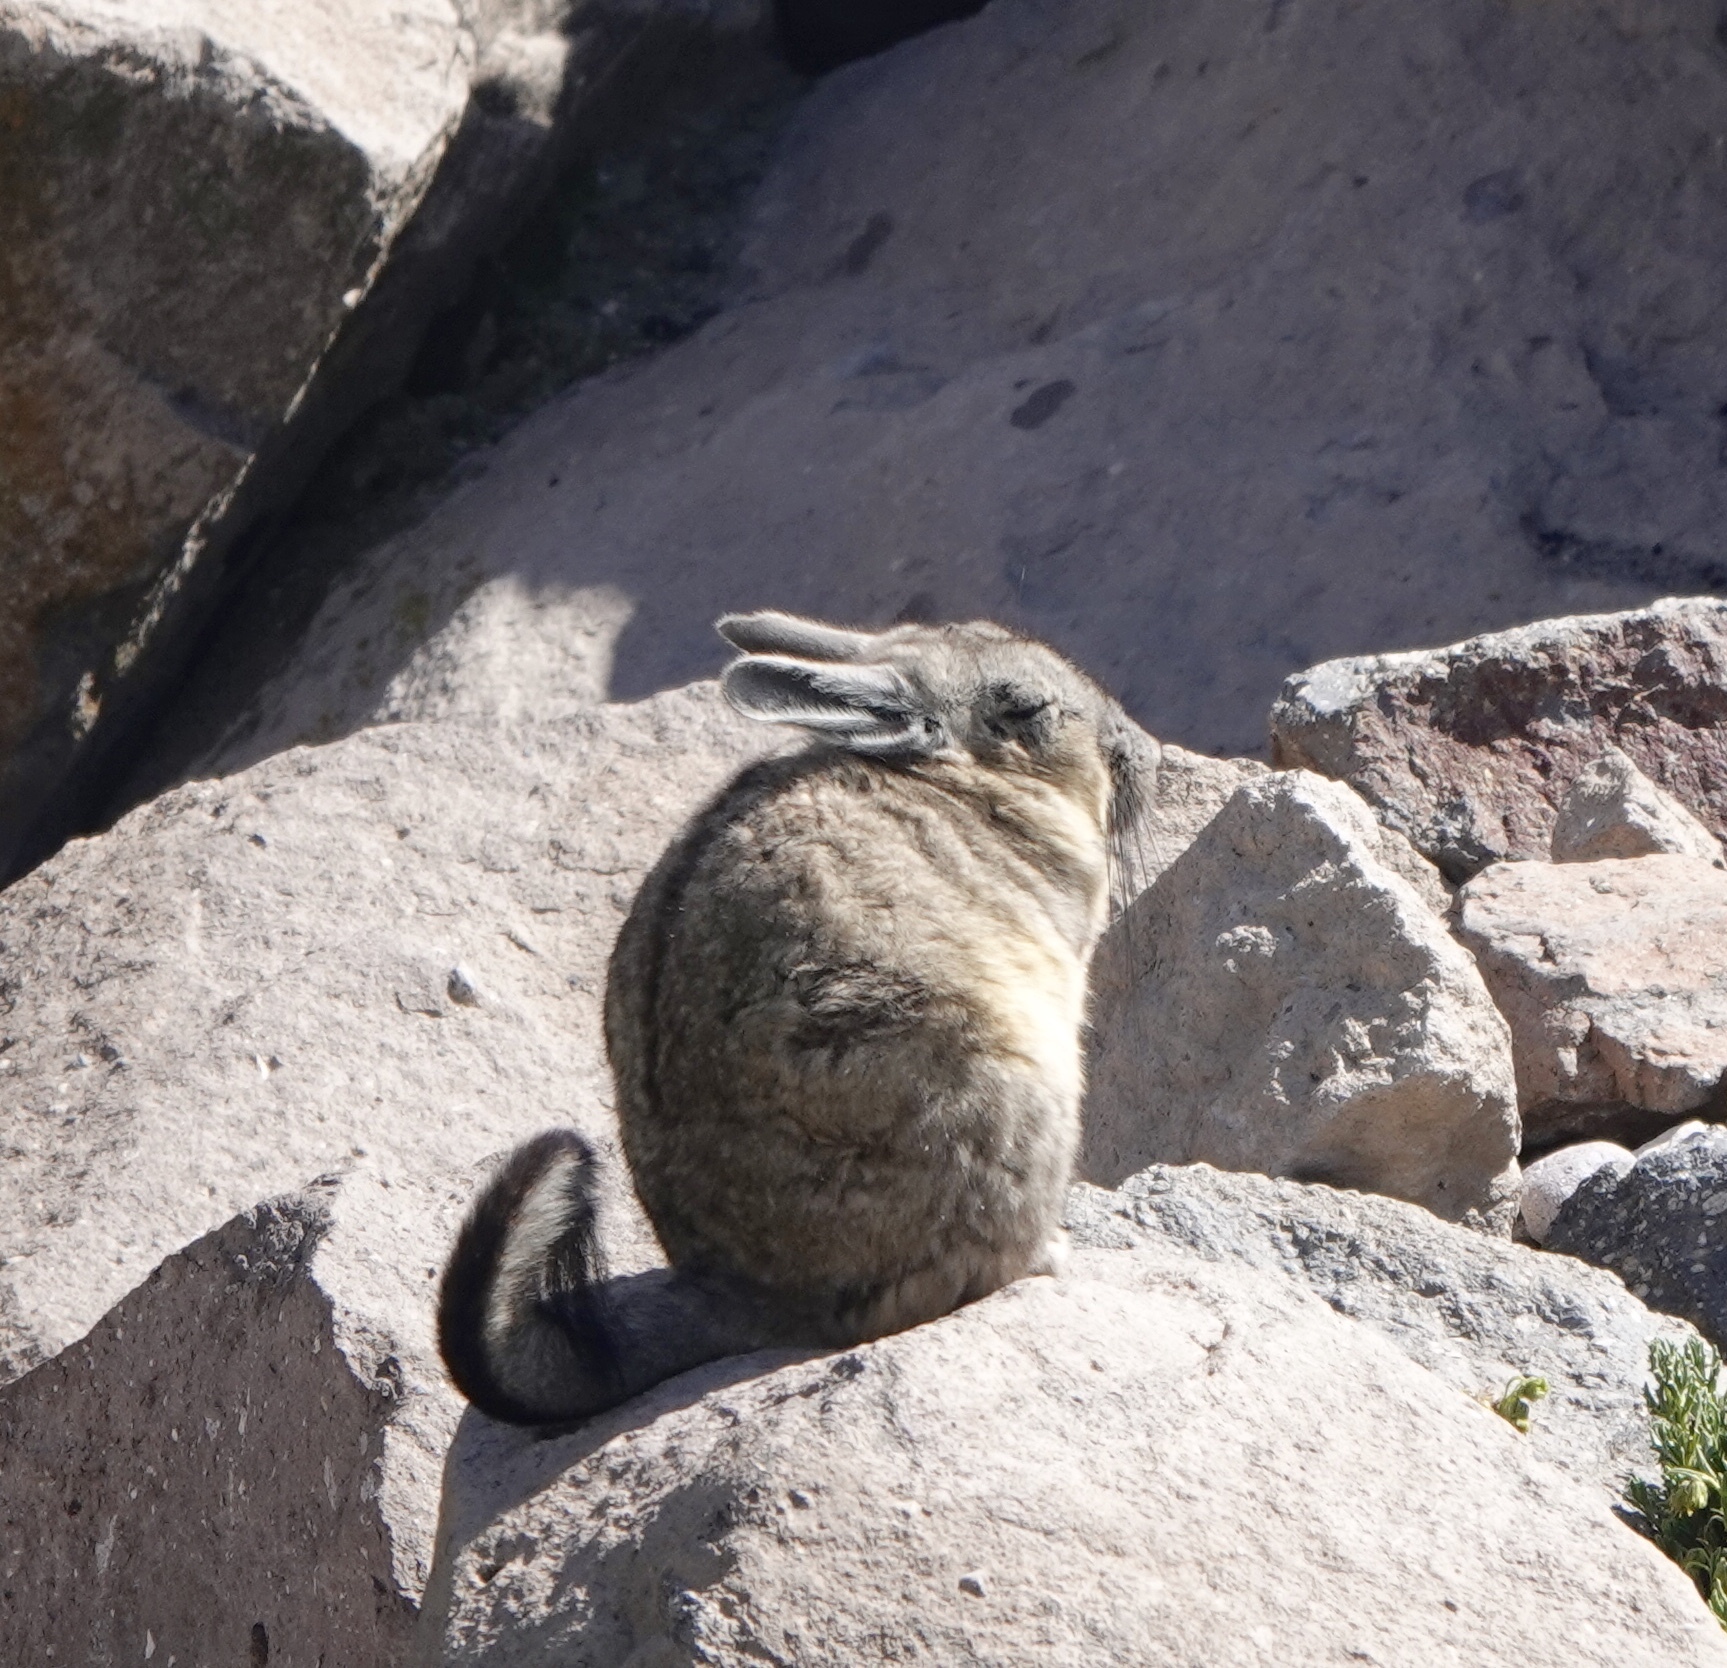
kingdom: Animalia
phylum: Chordata
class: Mammalia
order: Rodentia
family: Chinchillidae
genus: Lagidium
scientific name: Lagidium viscacia
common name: Southern viscacha
